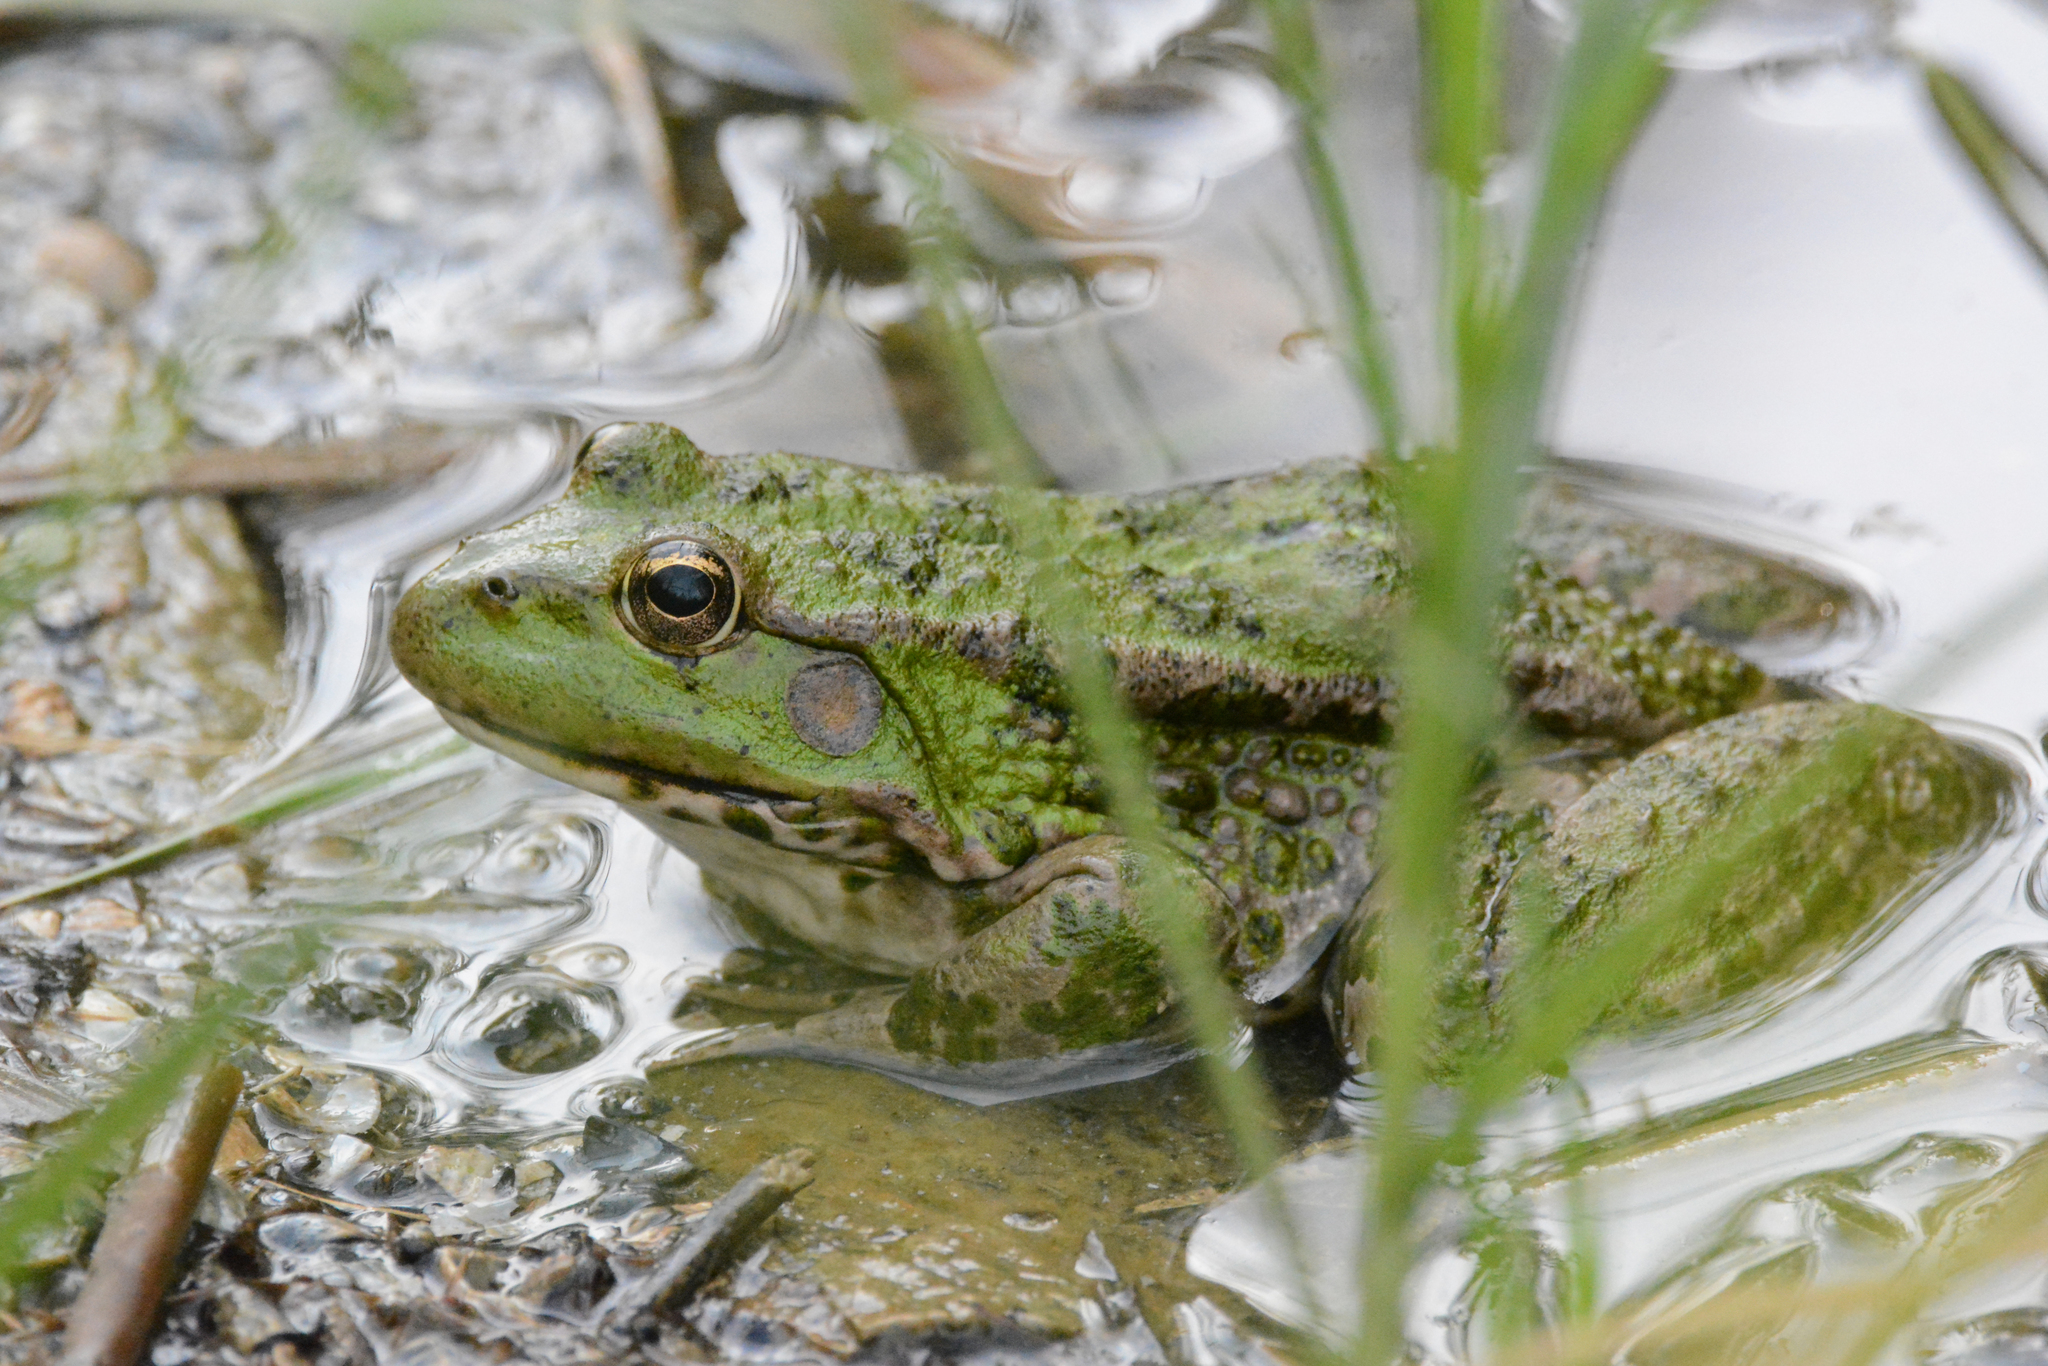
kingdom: Animalia
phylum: Chordata
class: Amphibia
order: Anura
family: Ranidae
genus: Pelophylax
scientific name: Pelophylax ridibundus
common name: Marsh frog
